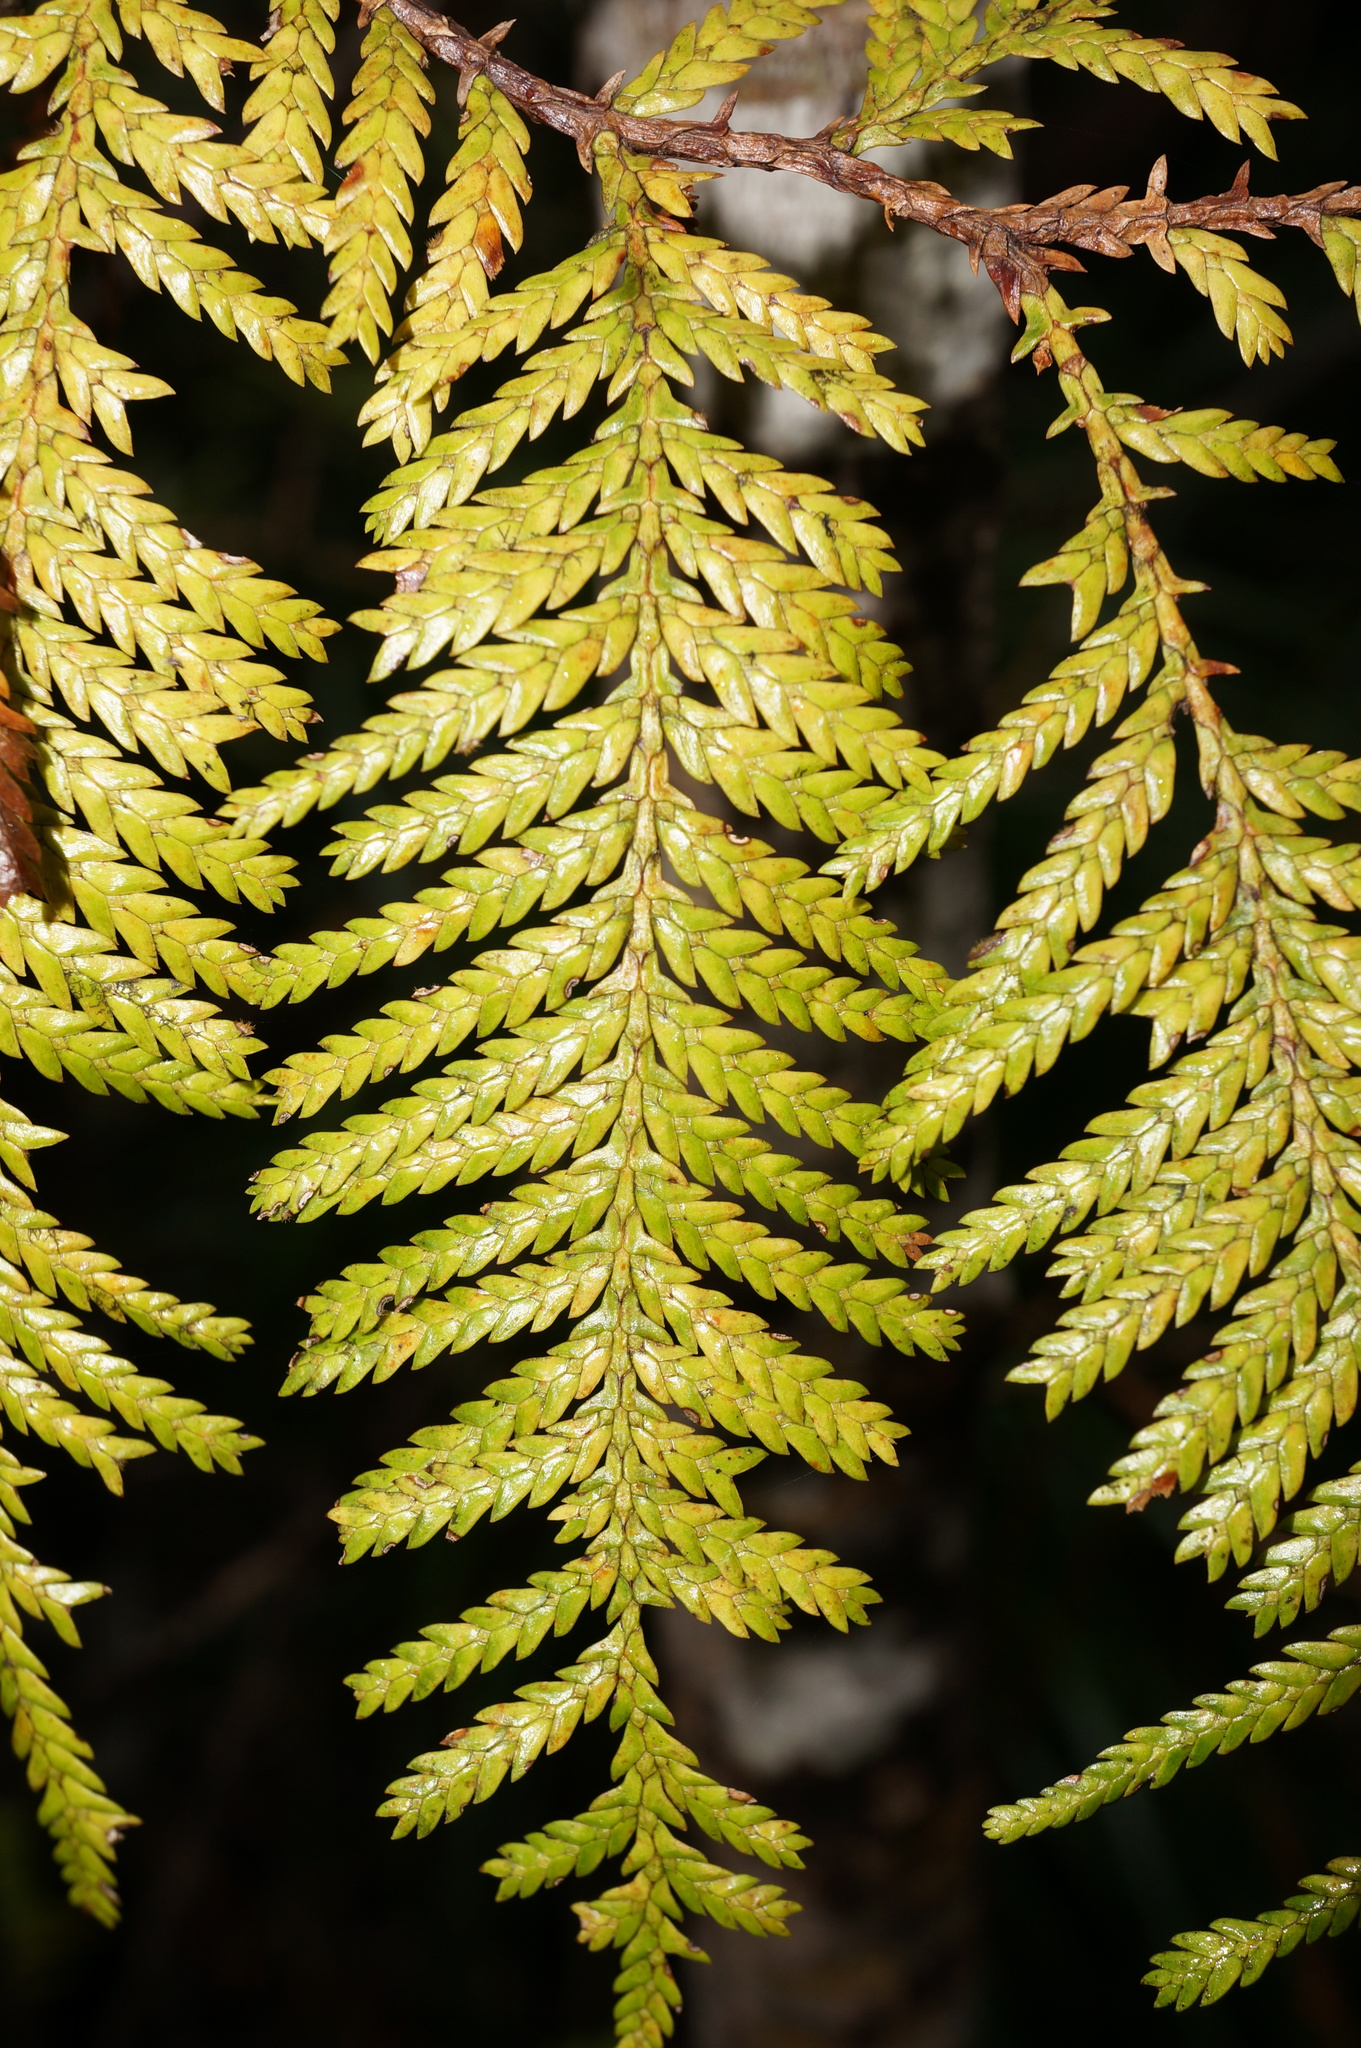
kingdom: Plantae
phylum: Tracheophyta
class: Pinopsida
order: Pinales
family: Cupressaceae
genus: Libocedrus
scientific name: Libocedrus plumosa
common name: New zealand cedar
